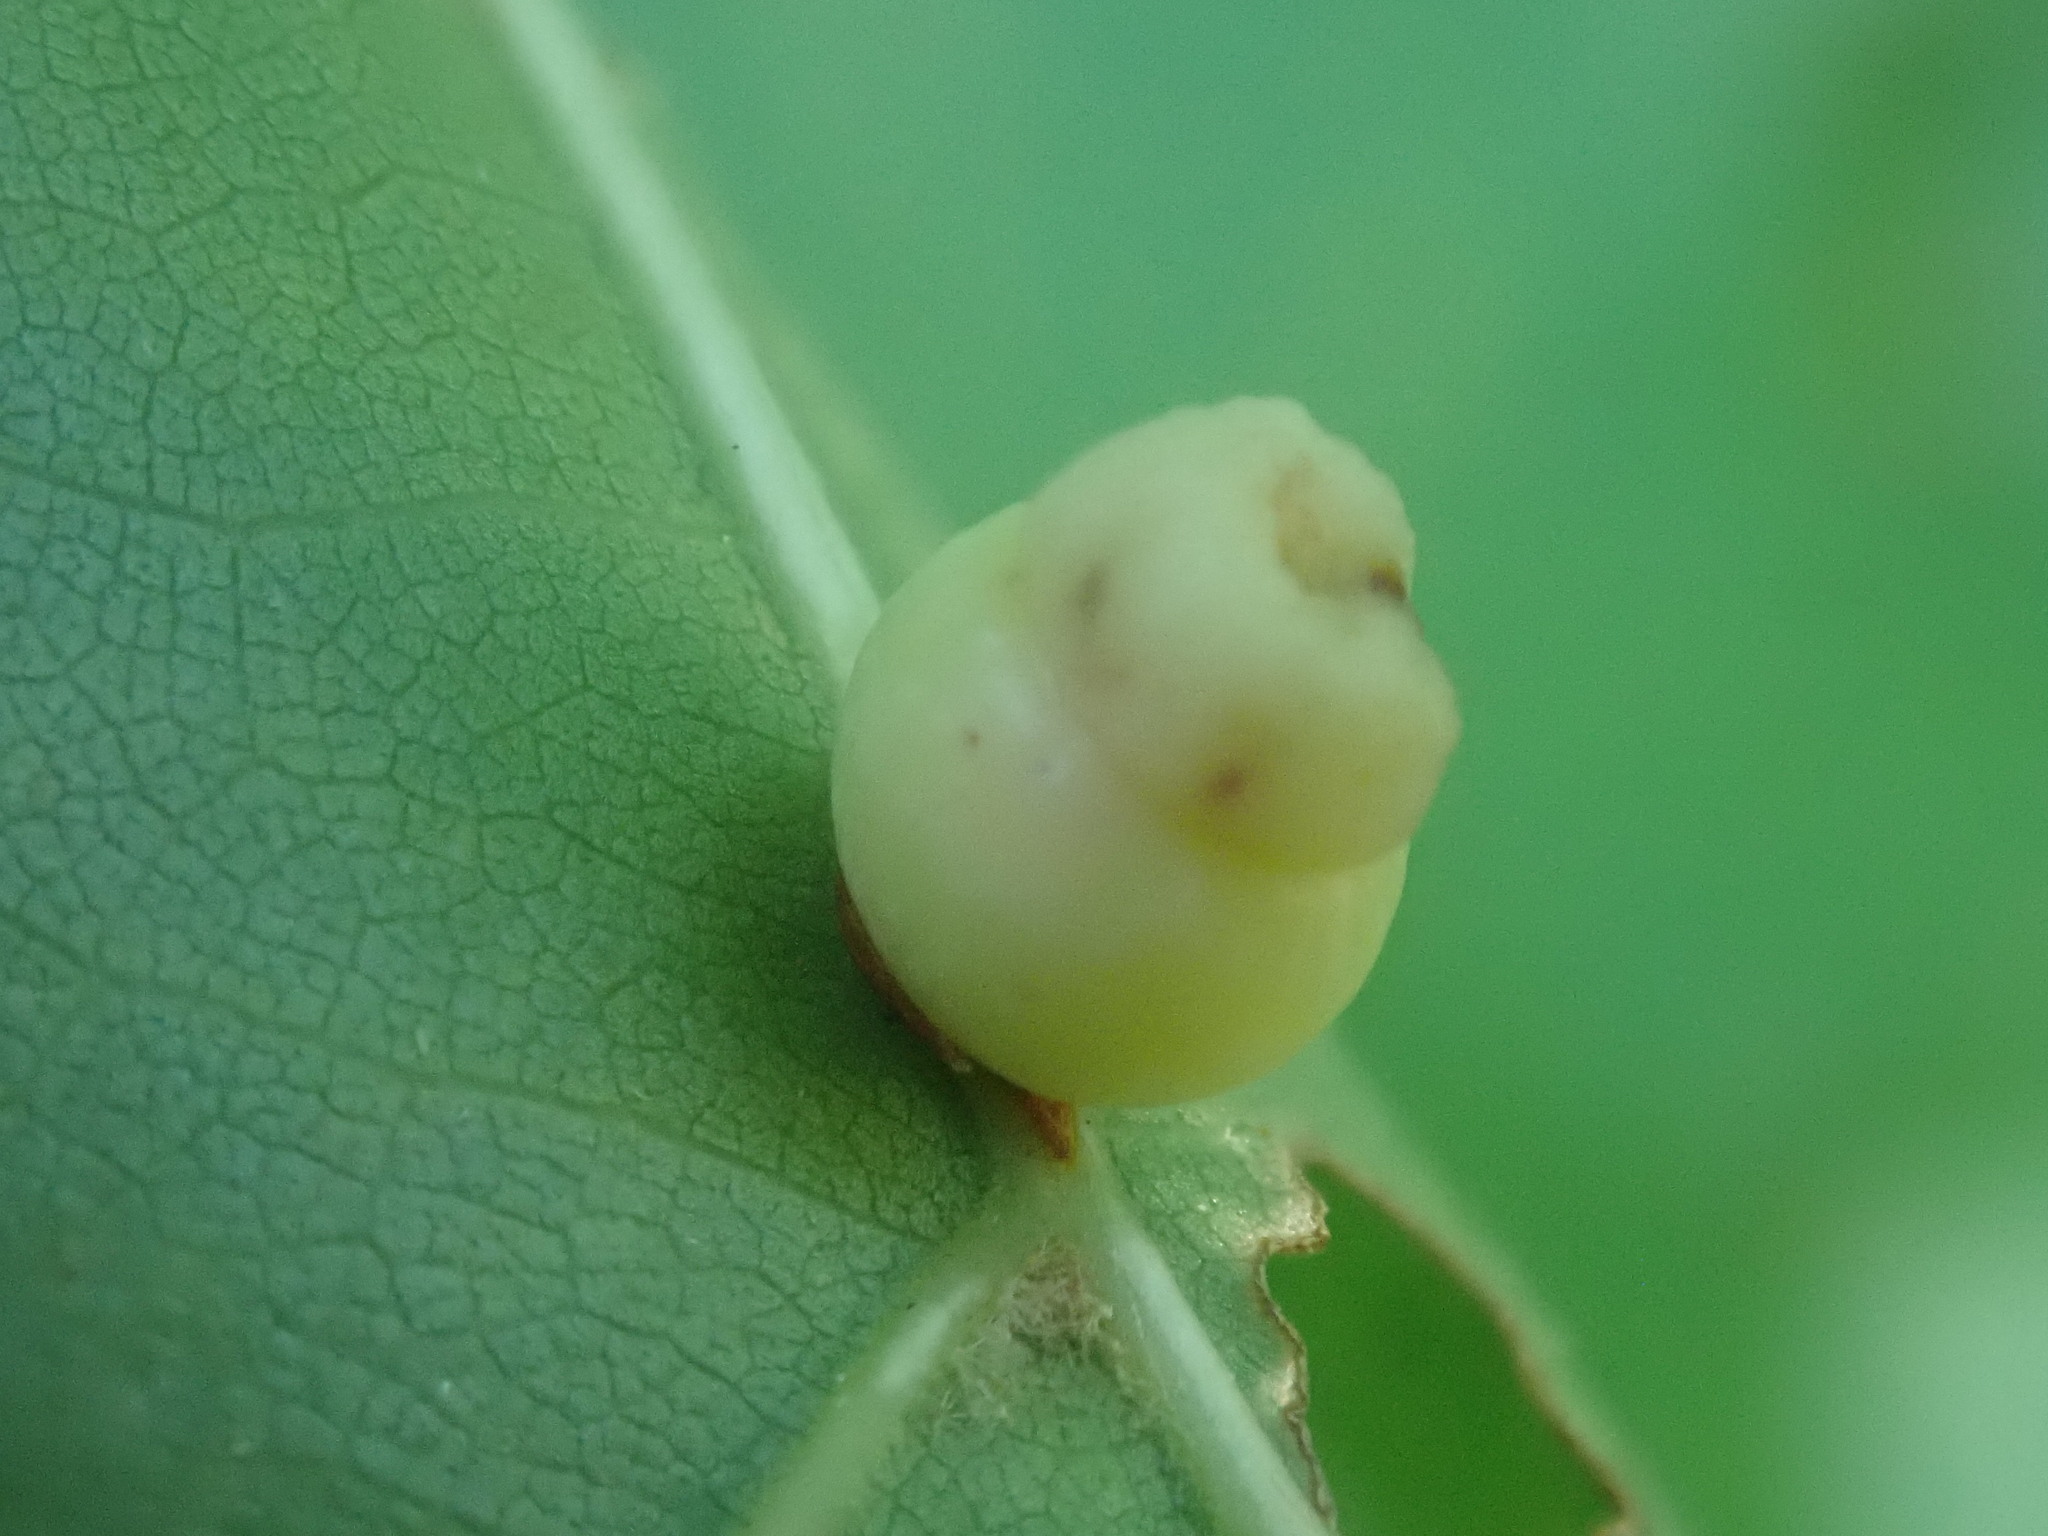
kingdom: Animalia
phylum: Arthropoda
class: Insecta
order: Hymenoptera
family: Cynipidae
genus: Kokkocynips
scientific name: Kokkocynips rileyi
